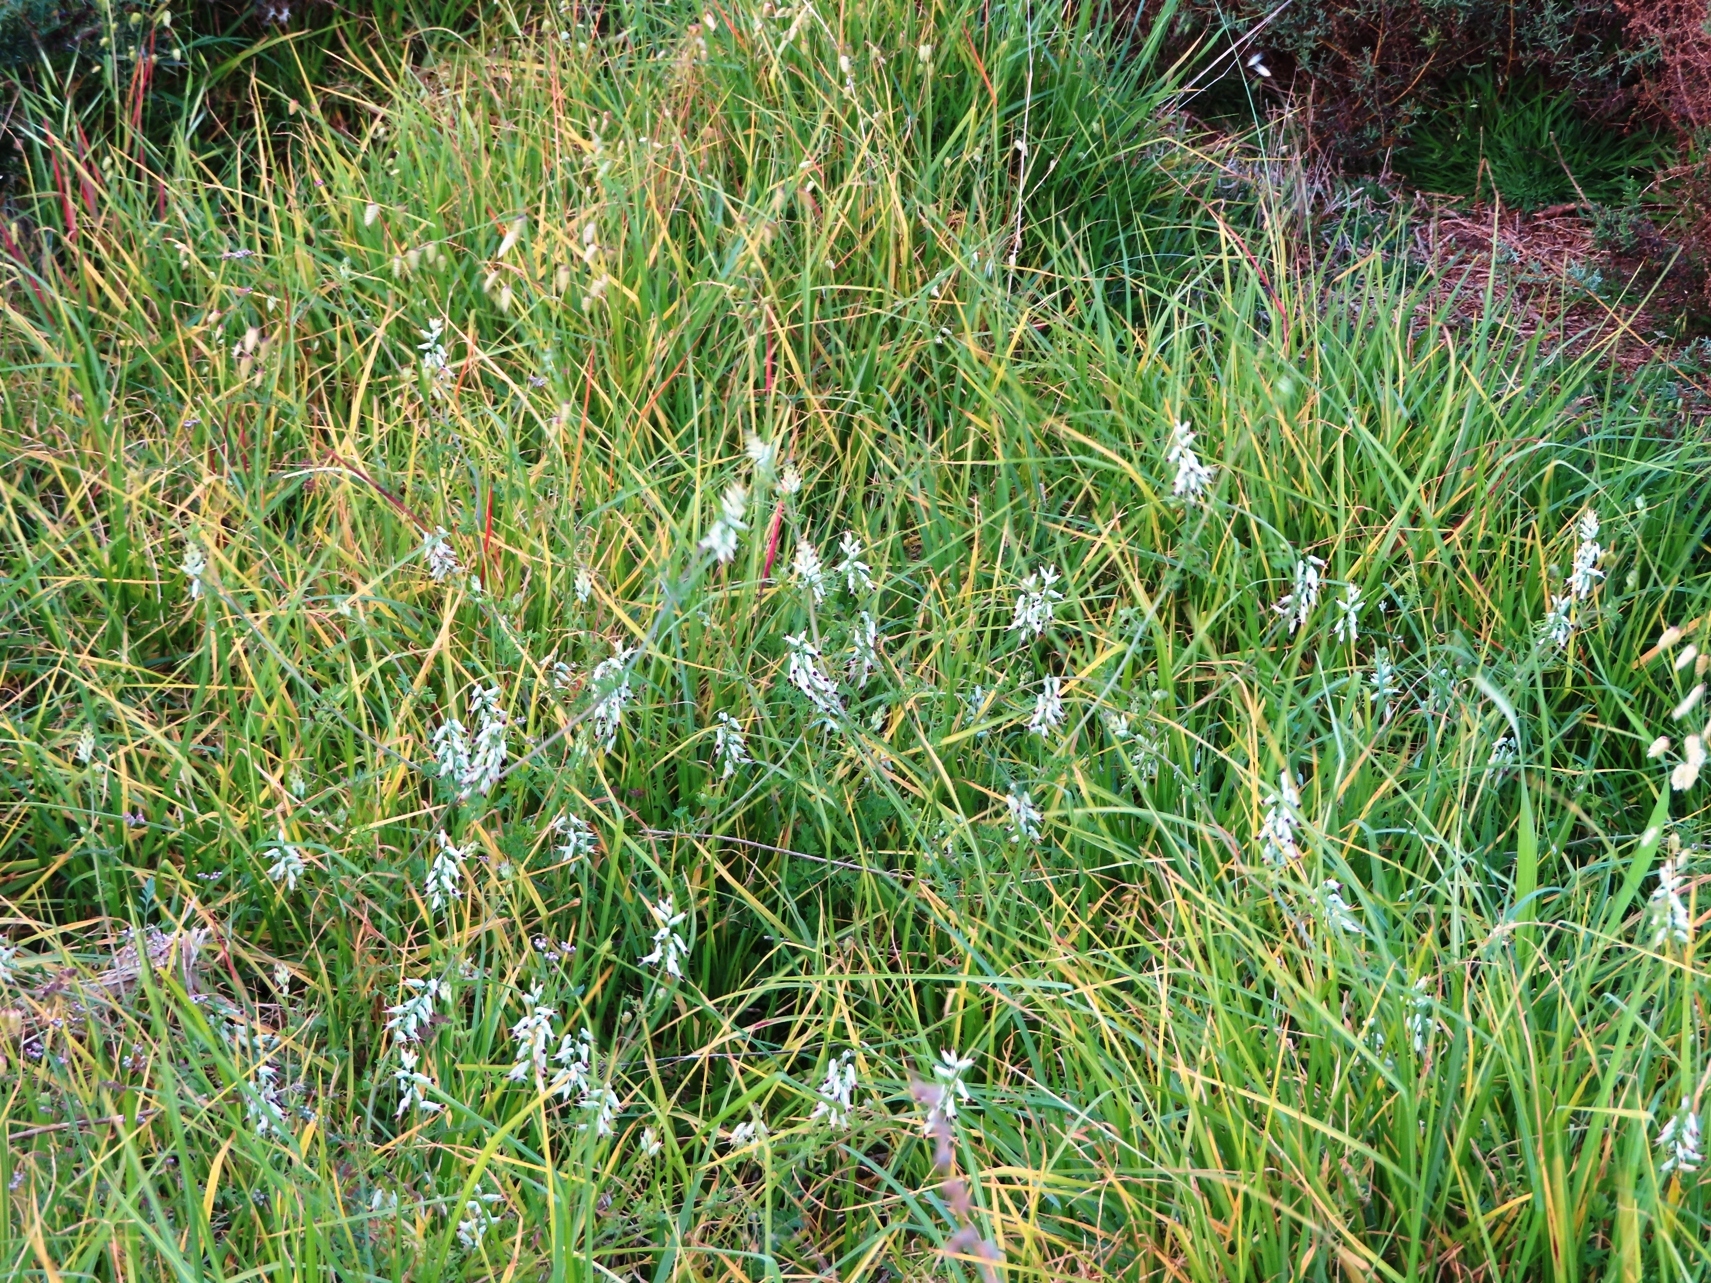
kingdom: Plantae
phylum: Tracheophyta
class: Magnoliopsida
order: Ranunculales
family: Papaveraceae
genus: Fumaria
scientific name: Fumaria capreolata
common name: White ramping-fumitory
